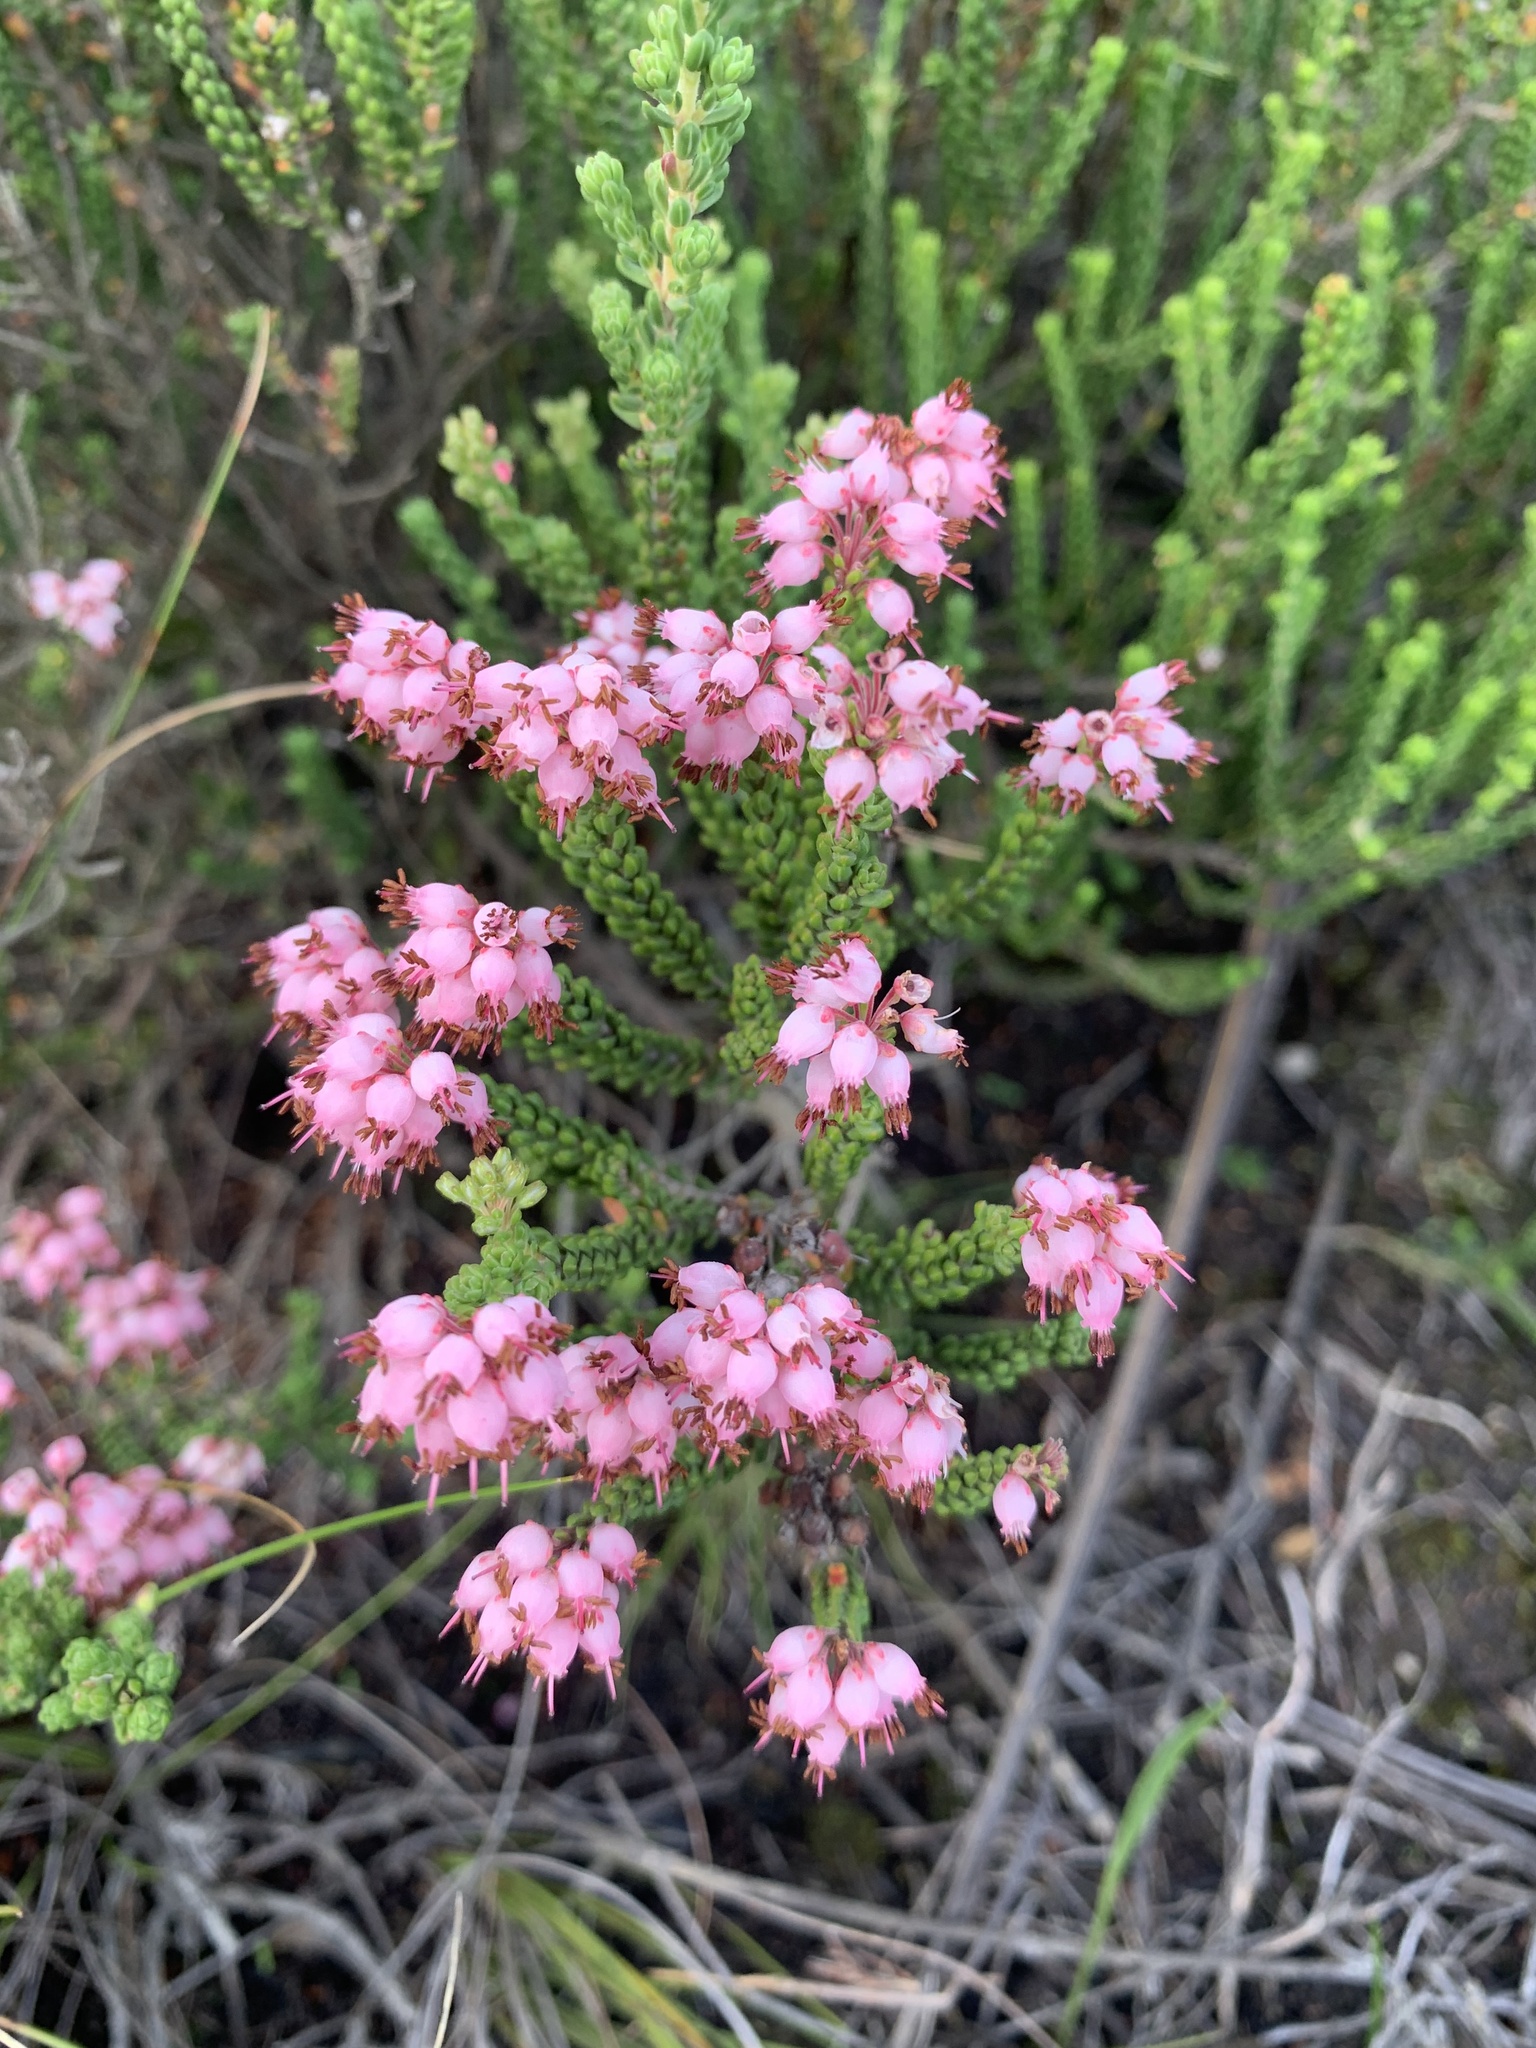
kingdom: Plantae
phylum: Tracheophyta
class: Magnoliopsida
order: Ericales
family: Ericaceae
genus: Erica
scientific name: Erica petraea
